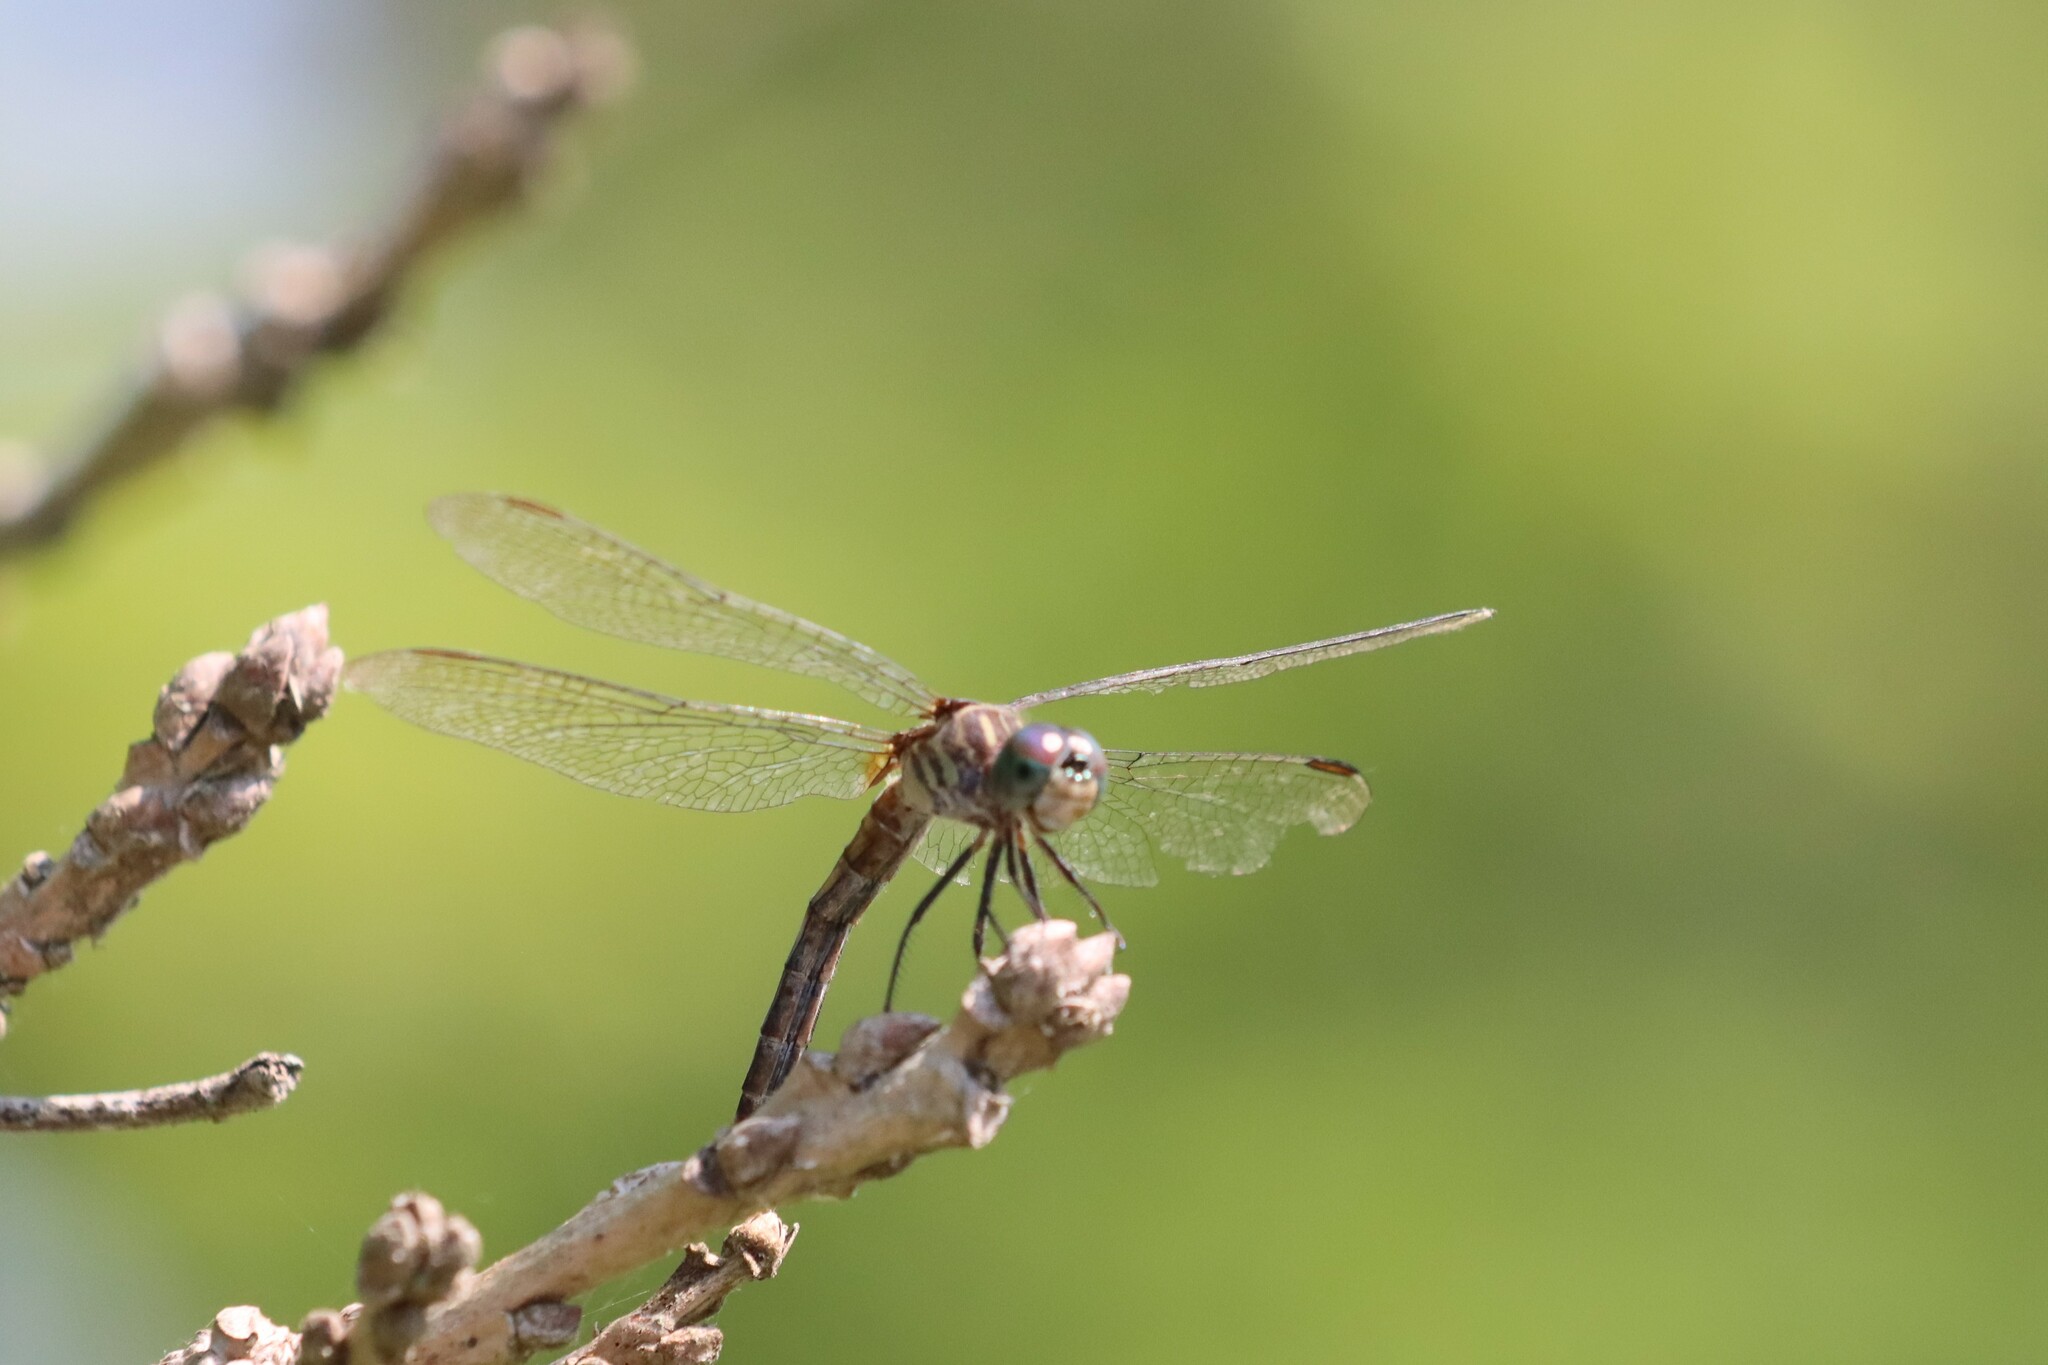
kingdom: Animalia
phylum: Arthropoda
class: Insecta
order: Odonata
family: Libellulidae
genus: Pachydiplax
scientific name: Pachydiplax longipennis
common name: Blue dasher
